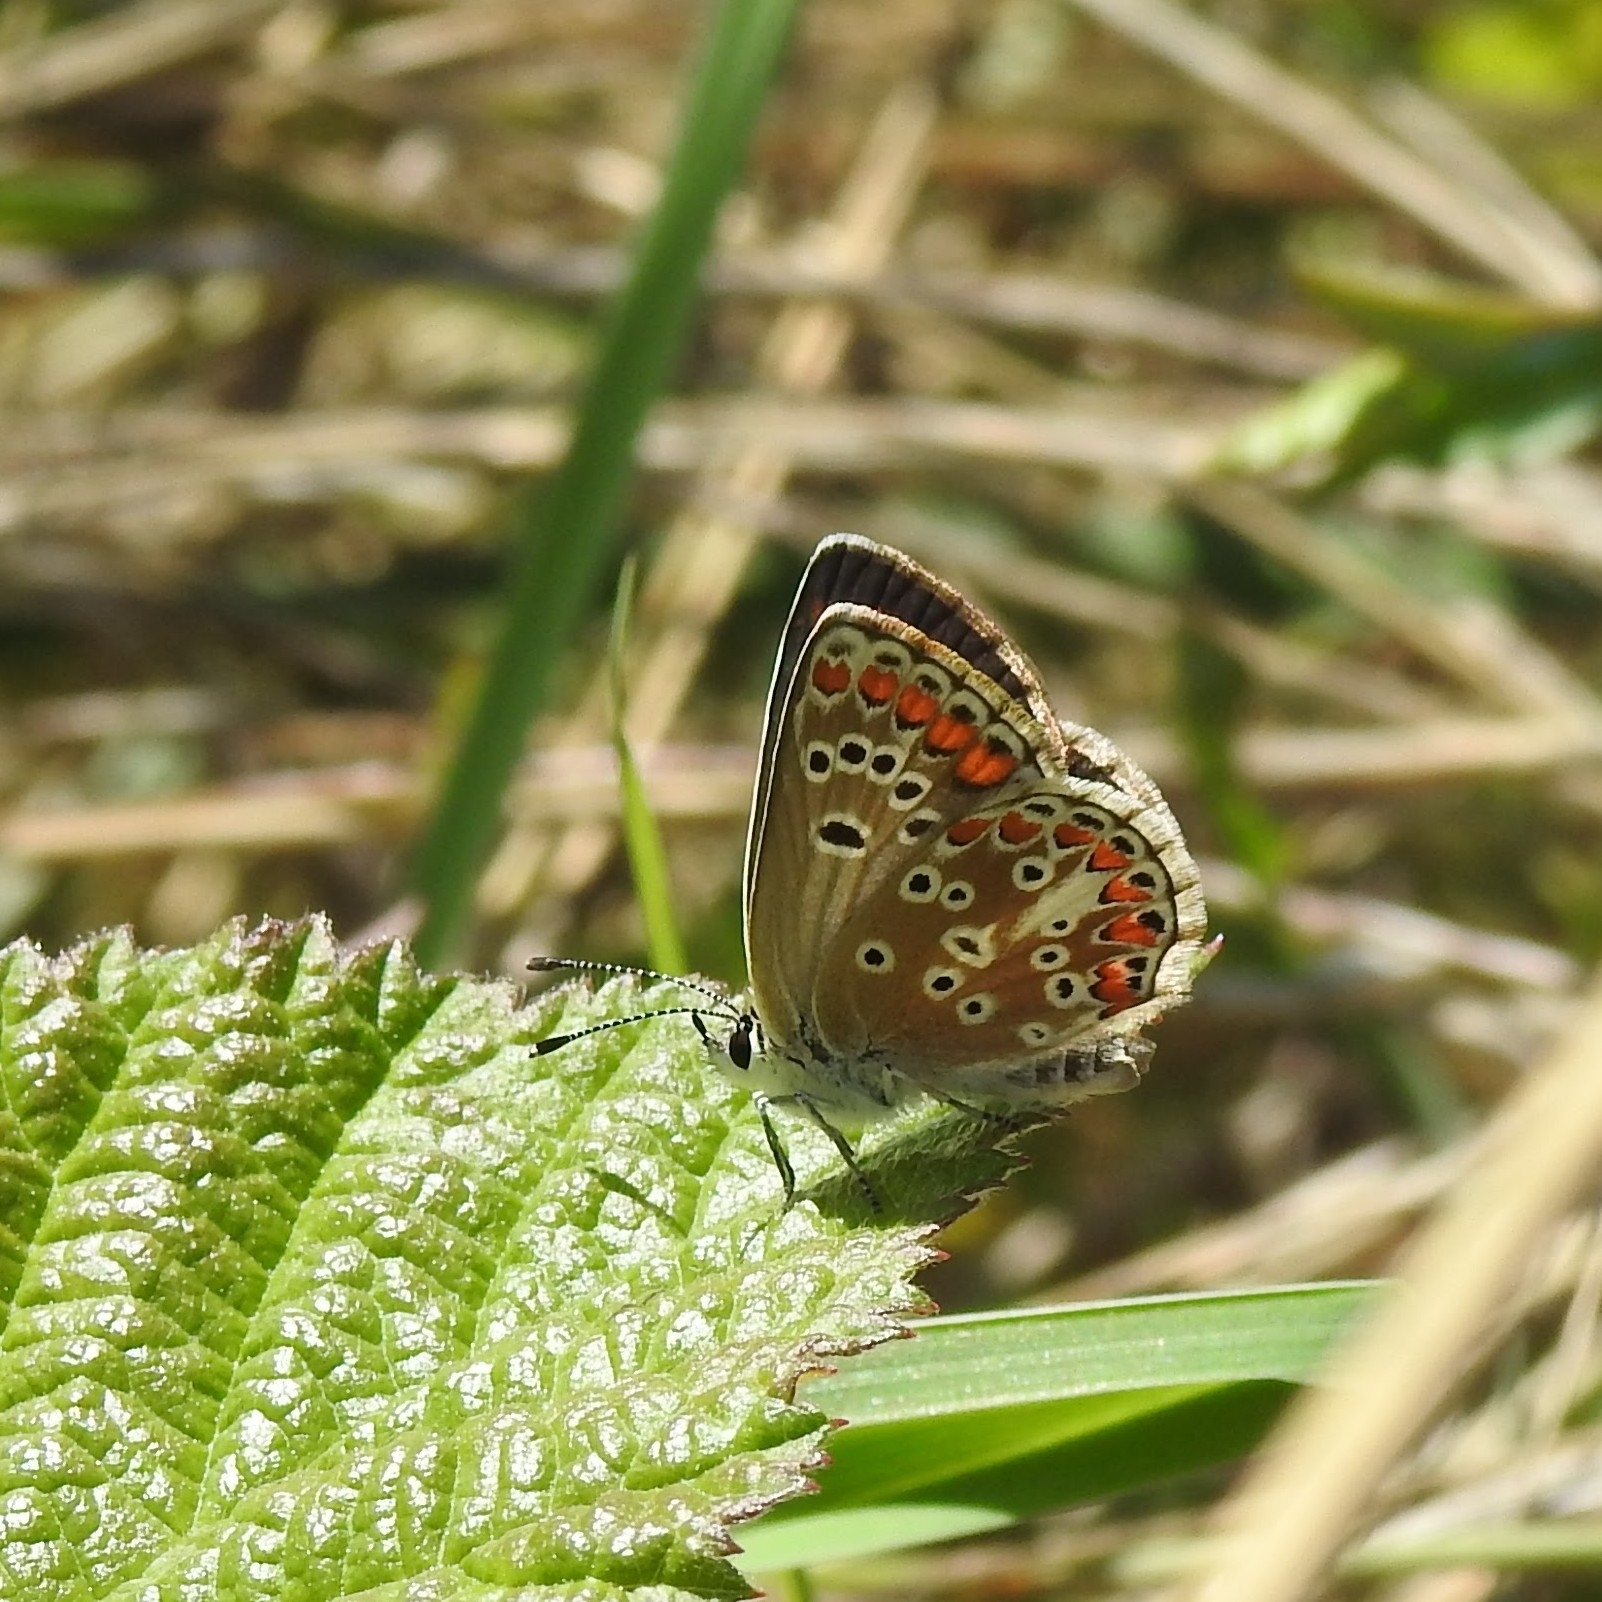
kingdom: Animalia
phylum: Arthropoda
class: Insecta
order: Lepidoptera
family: Lycaenidae
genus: Aricia
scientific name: Aricia agestis
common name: Brown argus
